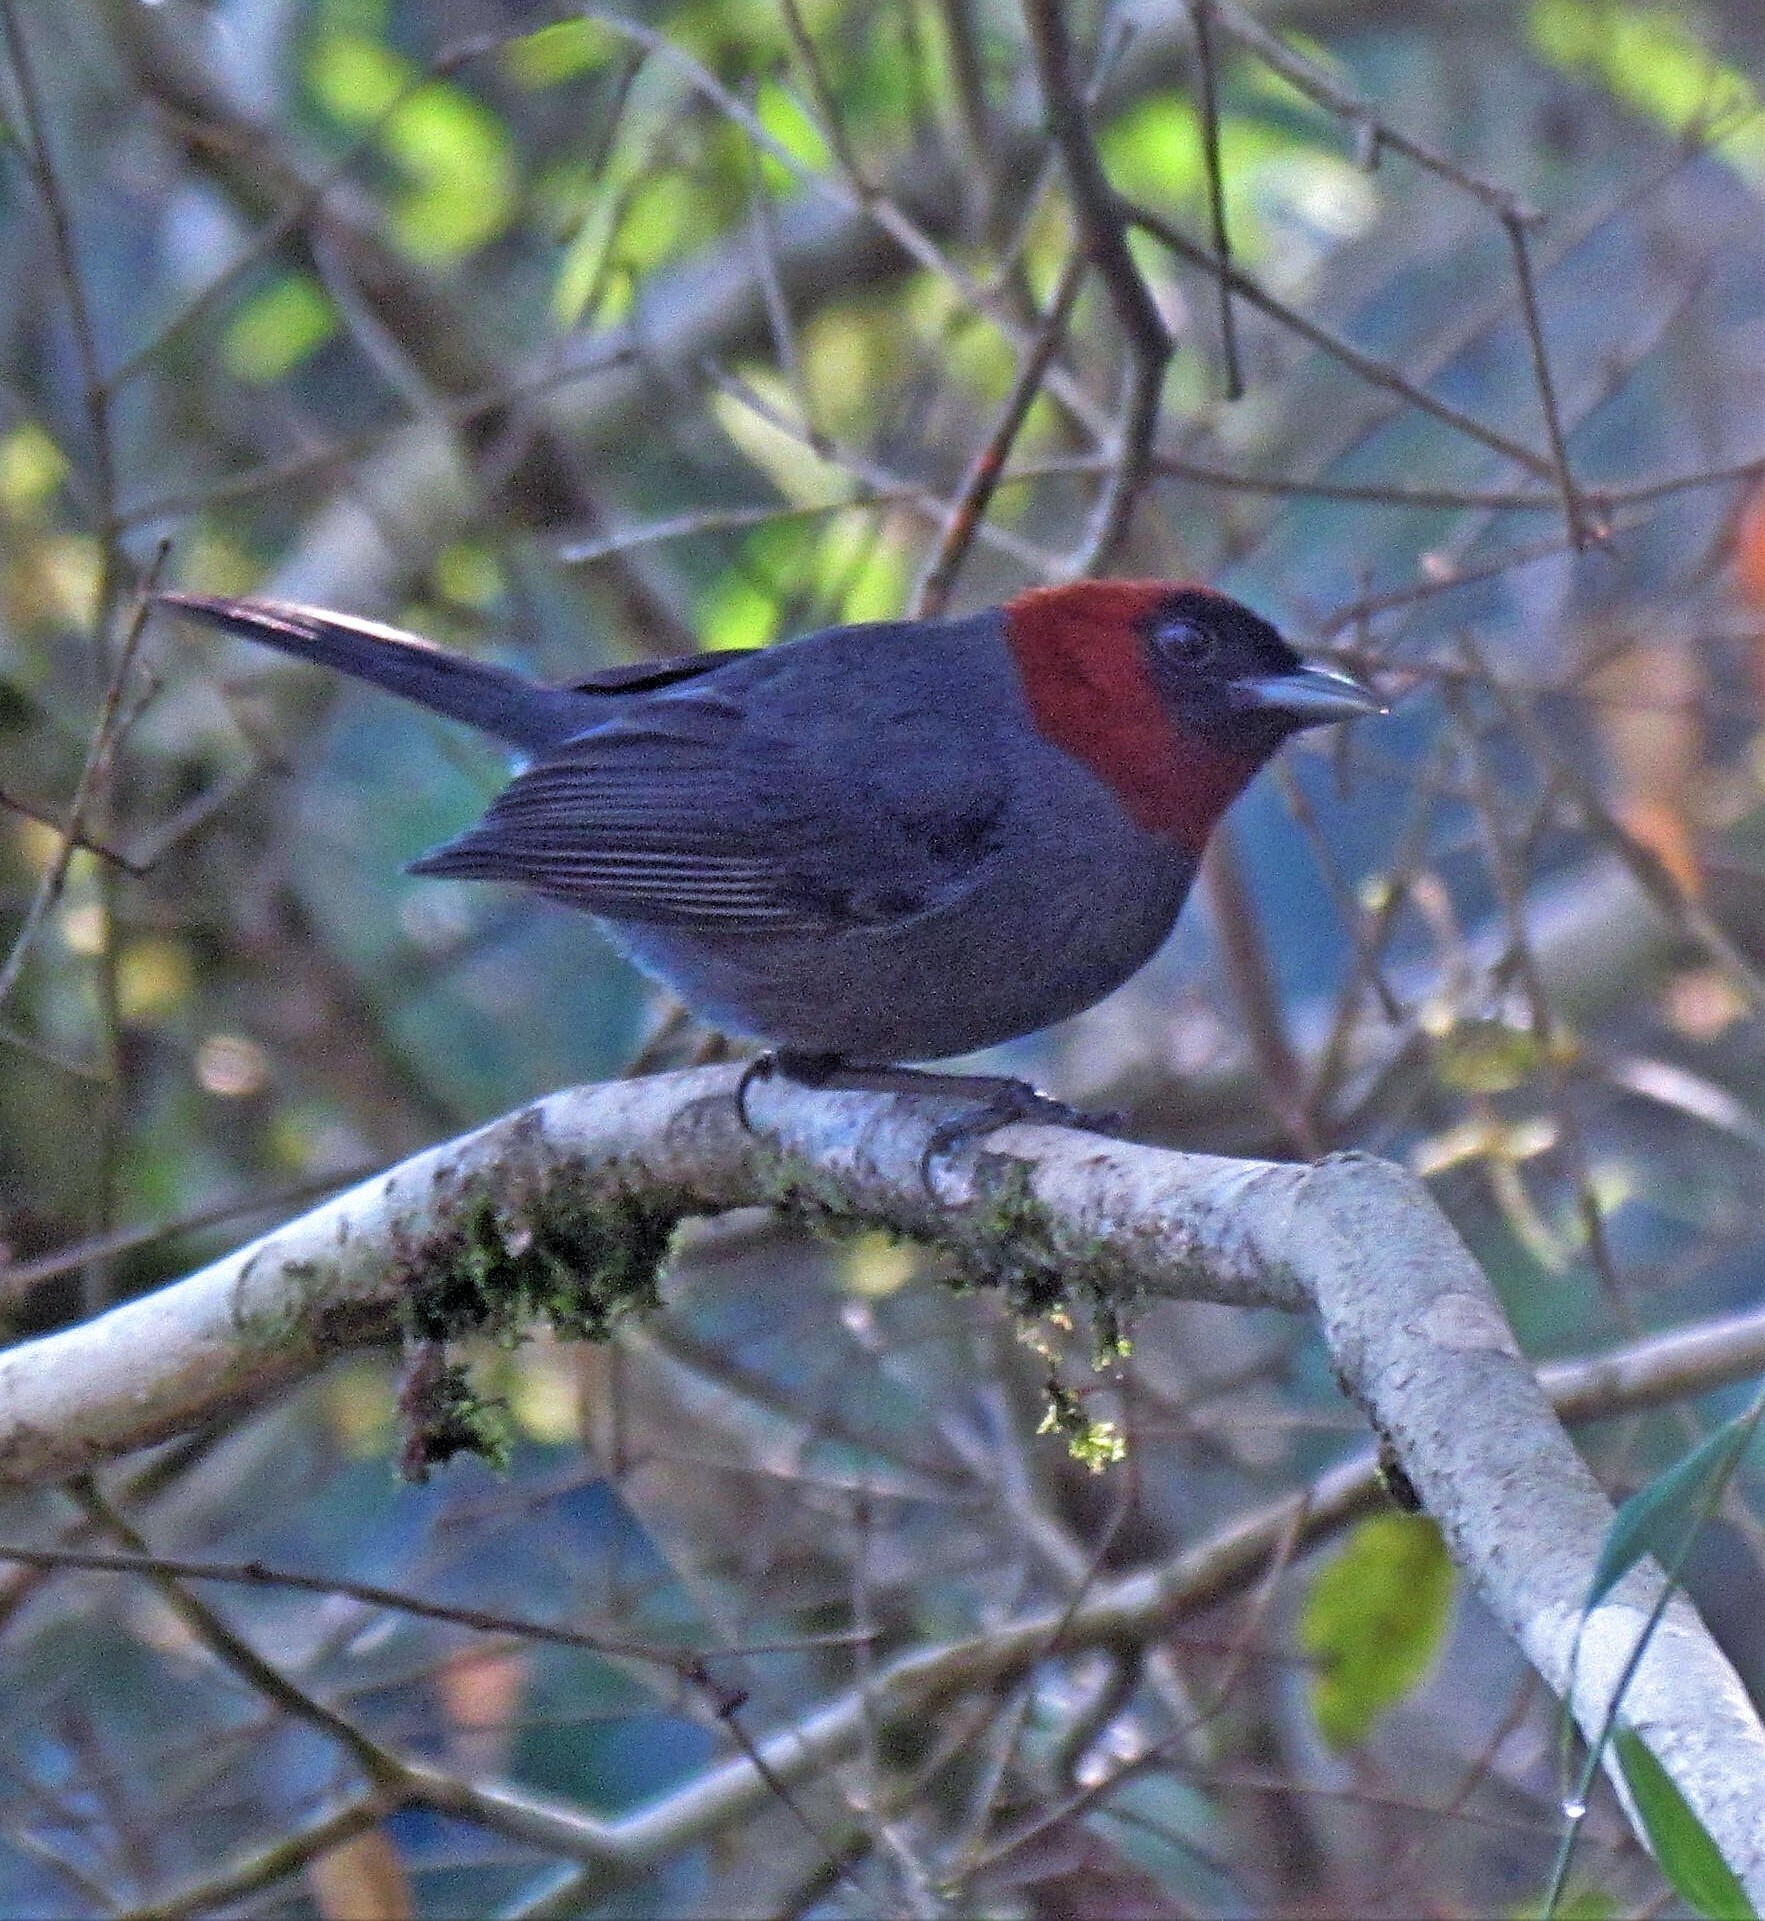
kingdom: Animalia
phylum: Chordata
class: Aves
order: Passeriformes
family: Thraupidae
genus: Thlypopsis
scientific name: Thlypopsis pyrrhocoma
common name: Chestnut-headed tanager
